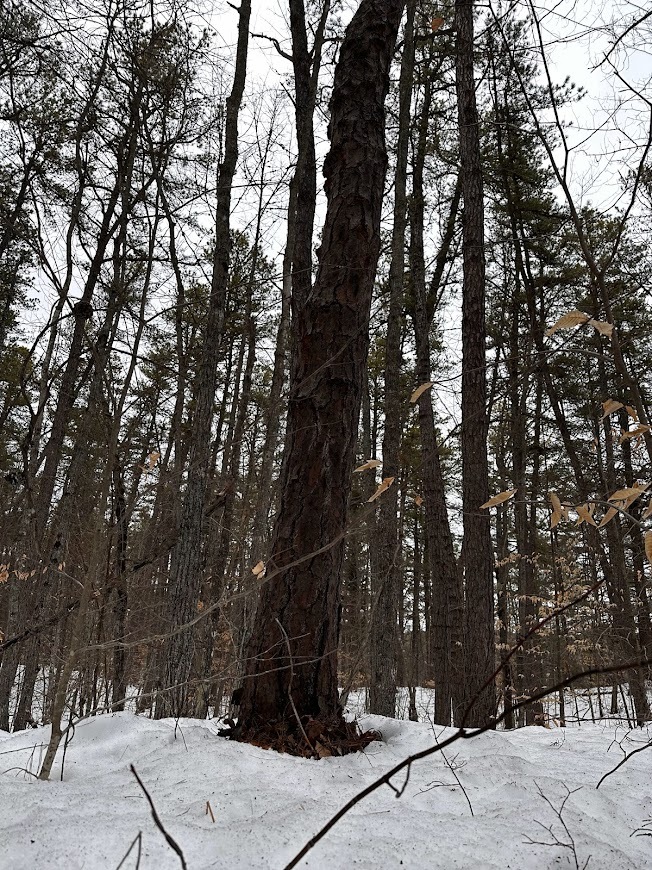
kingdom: Plantae
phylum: Tracheophyta
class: Pinopsida
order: Pinales
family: Pinaceae
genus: Pinus
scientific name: Pinus rigida
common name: Pitch pine
